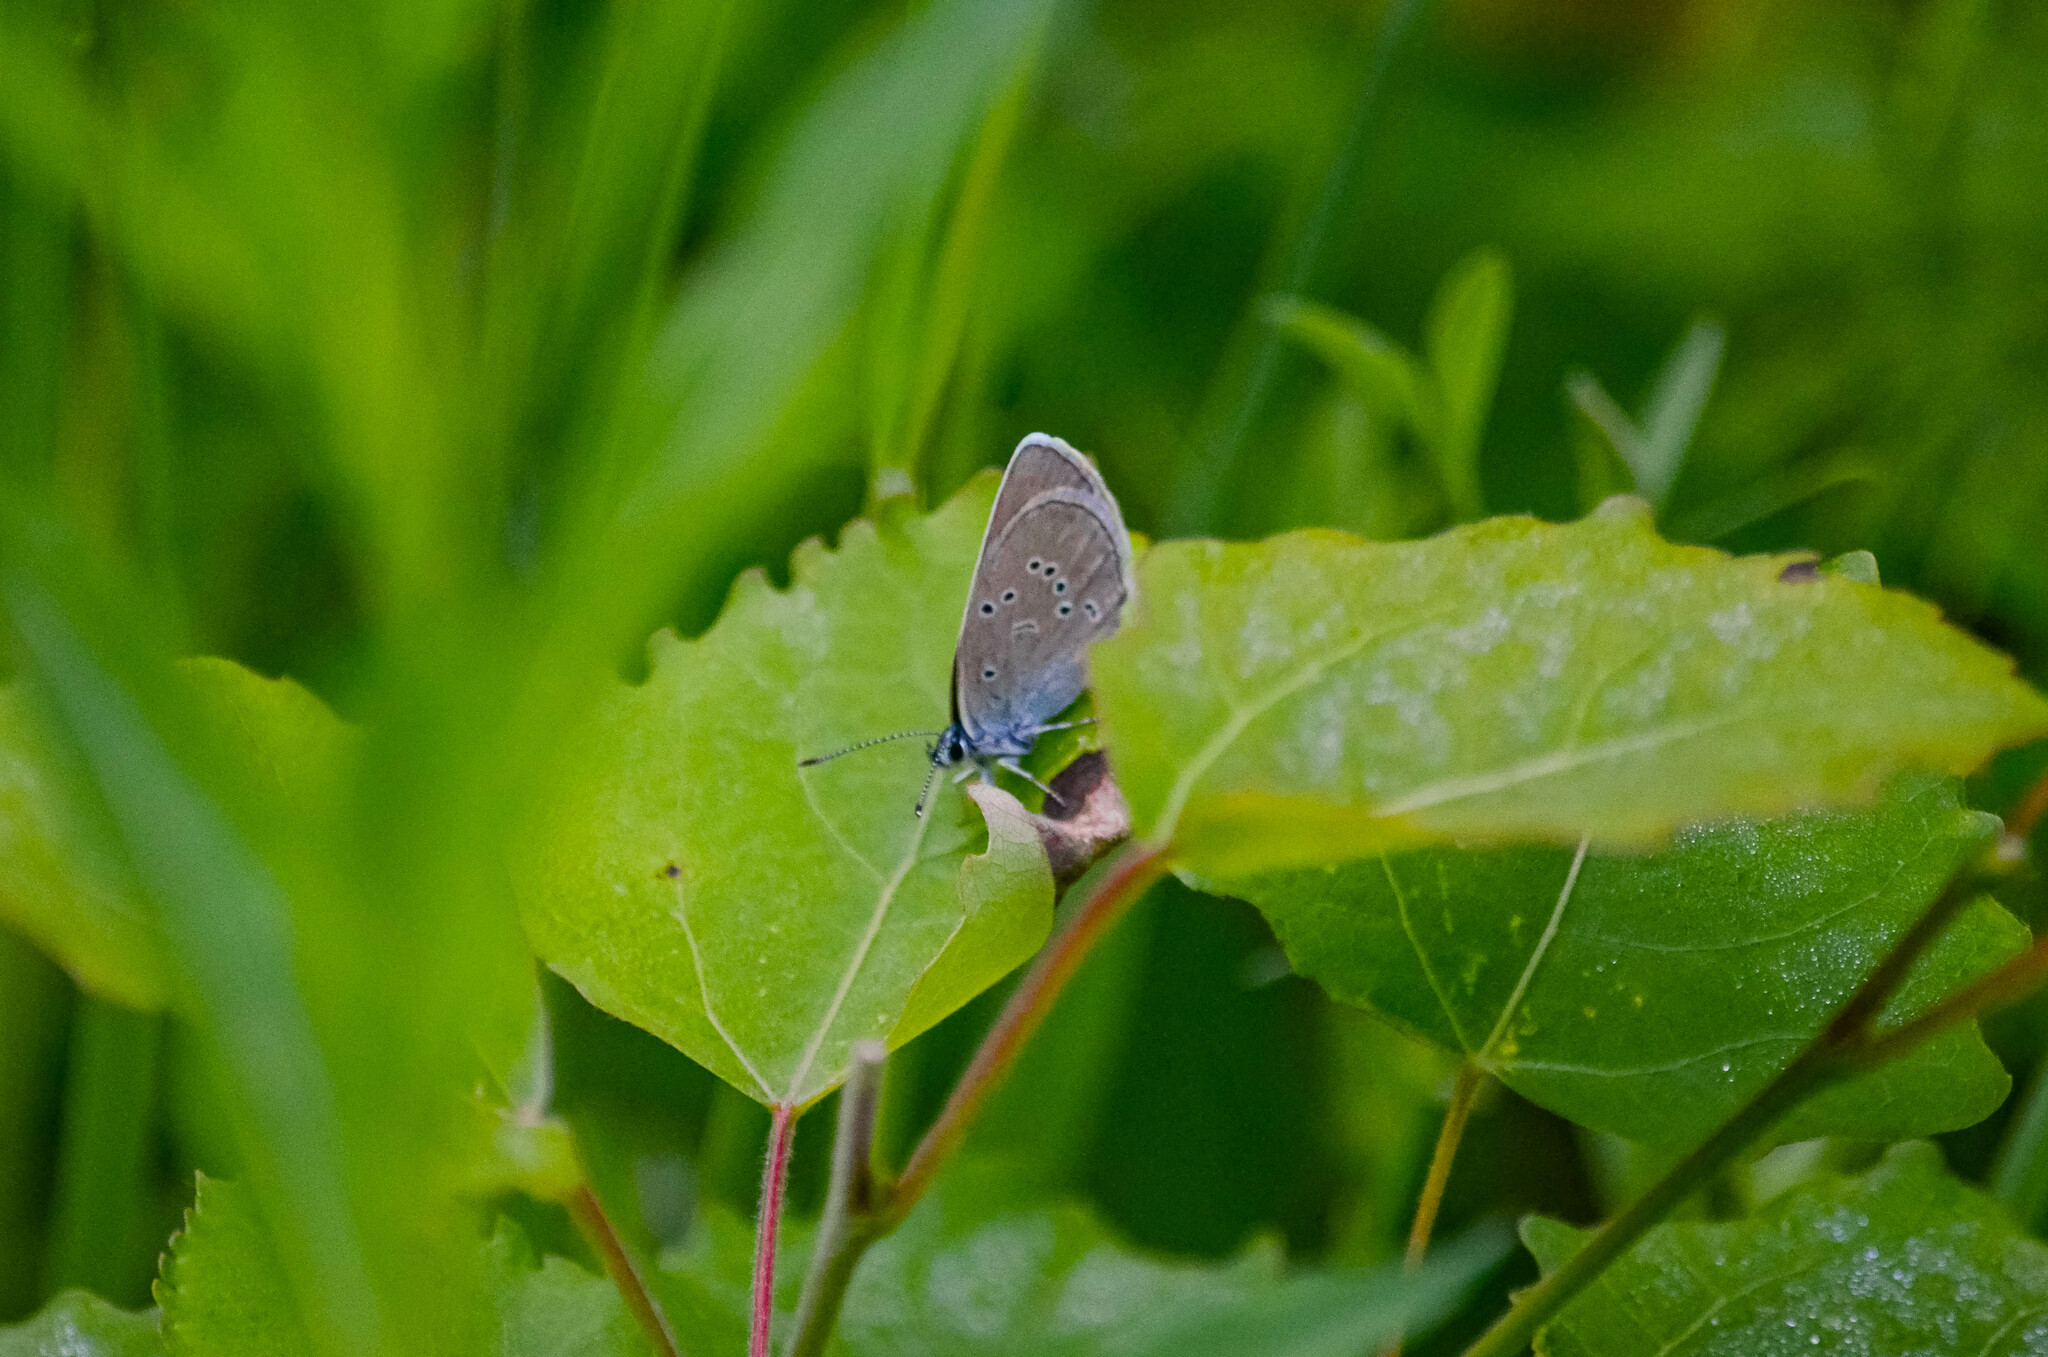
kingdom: Animalia
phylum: Arthropoda
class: Insecta
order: Lepidoptera
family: Lycaenidae
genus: Cyaniris
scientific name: Cyaniris semiargus
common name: Mazarine blue
